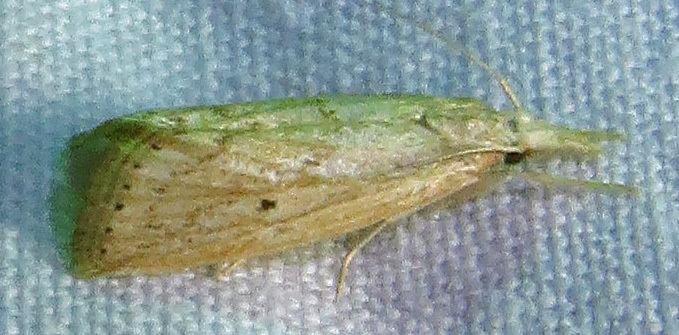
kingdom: Animalia
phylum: Arthropoda
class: Insecta
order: Lepidoptera
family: Crambidae
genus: Diatraea
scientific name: Diatraea lisetta
